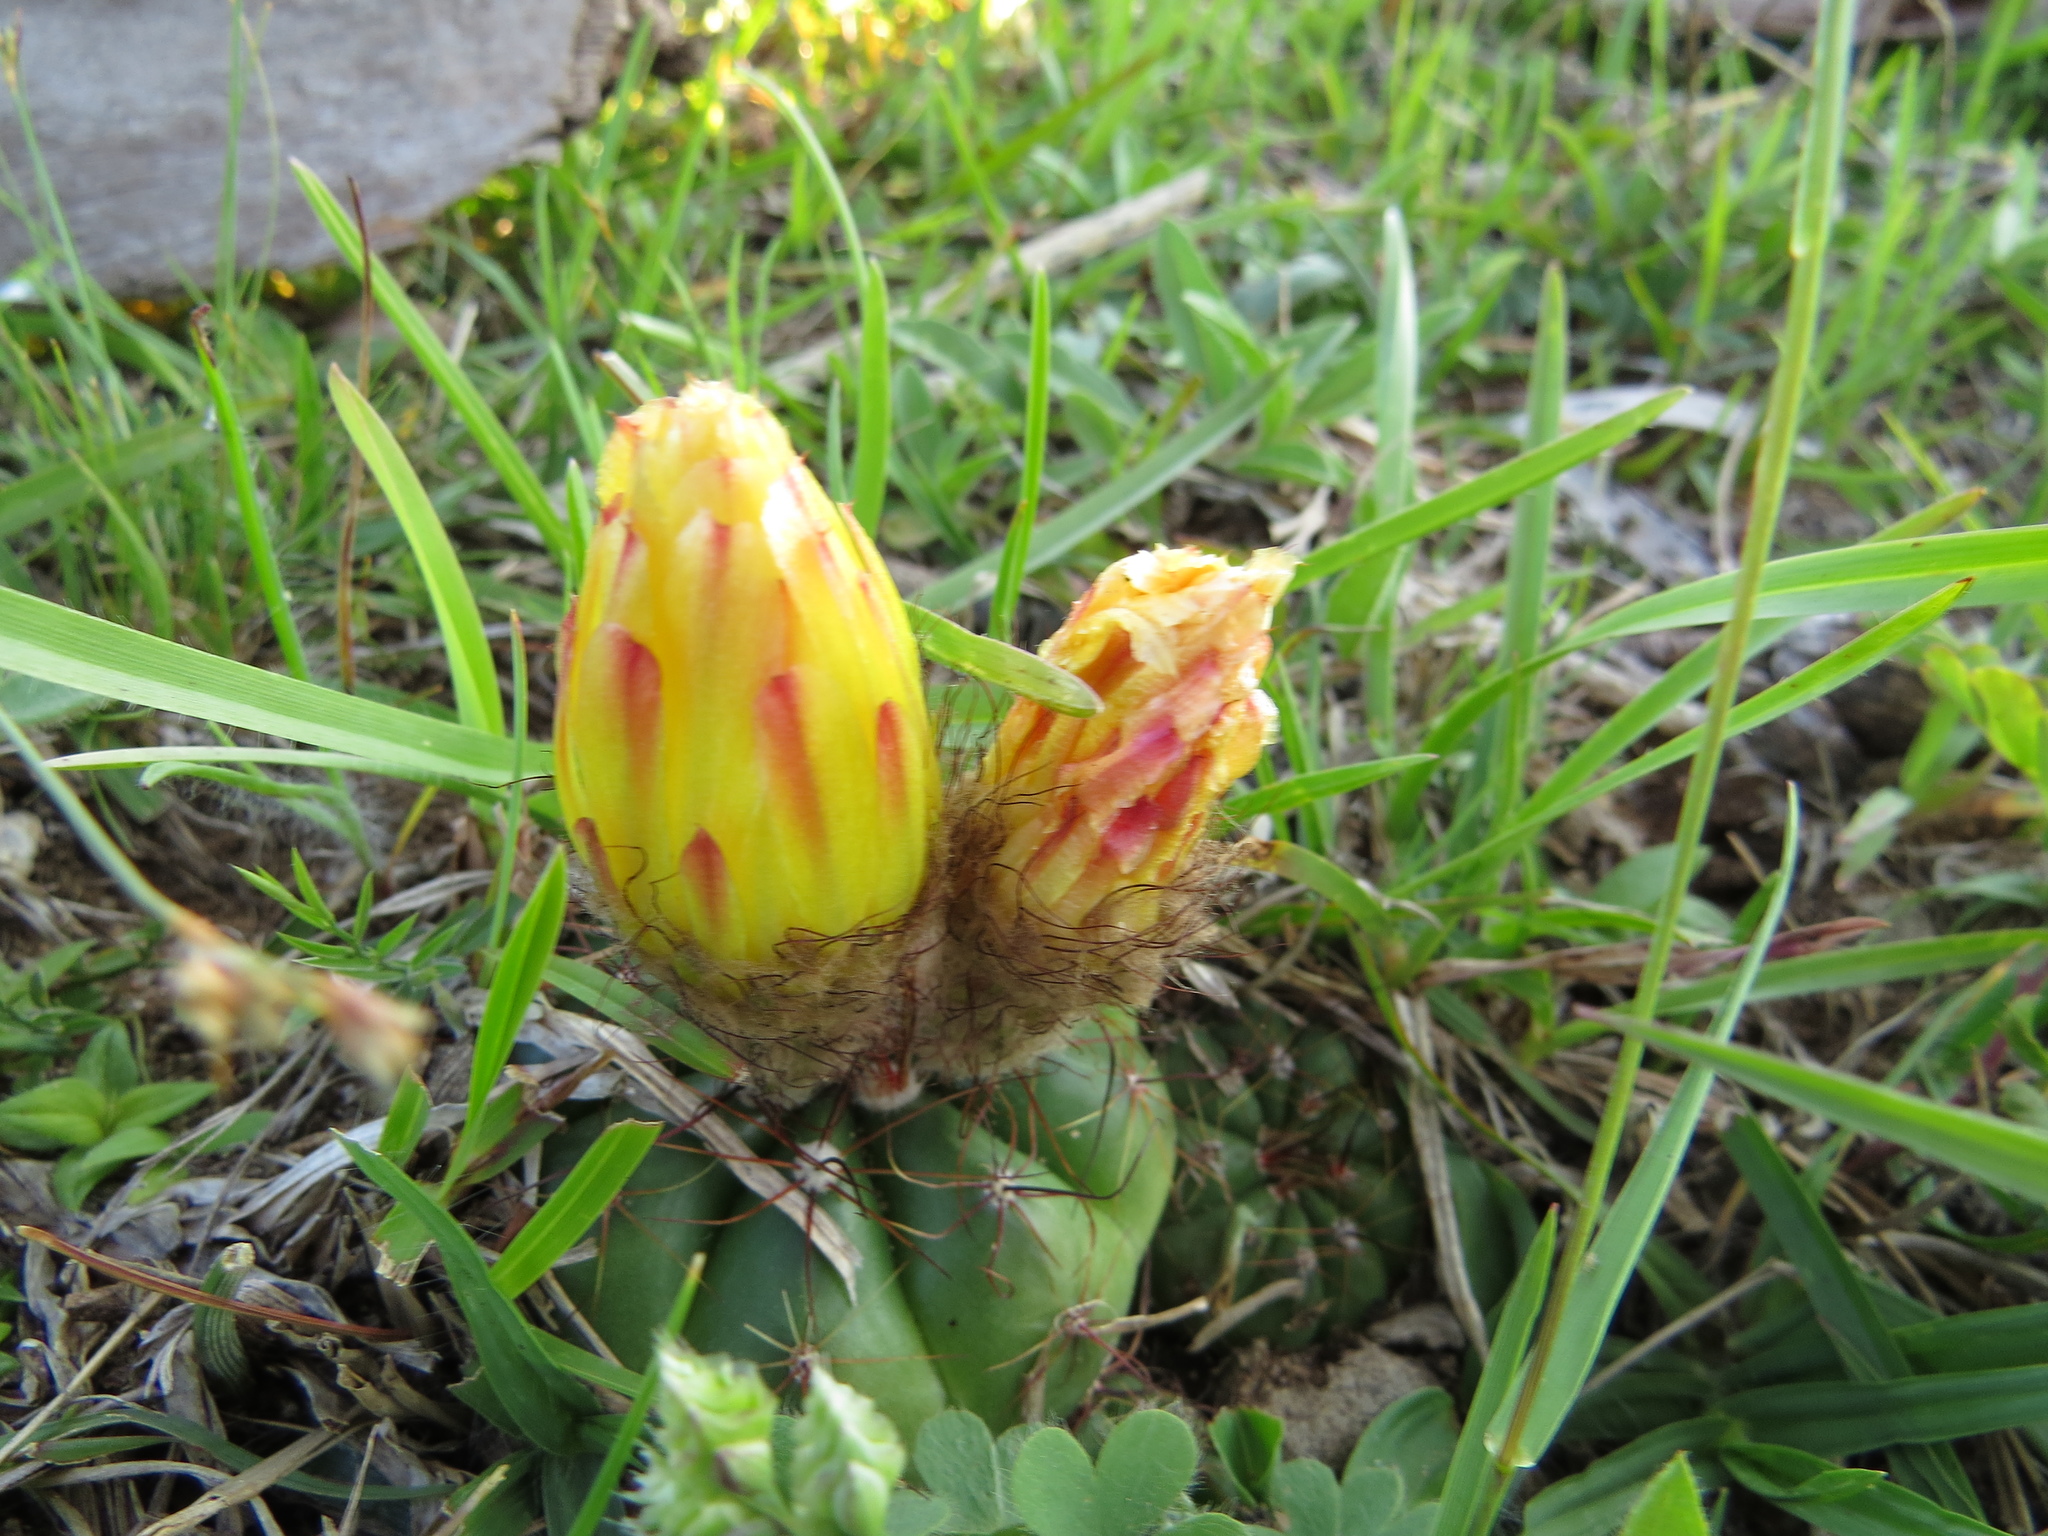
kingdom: Plantae
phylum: Tracheophyta
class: Magnoliopsida
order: Caryophyllales
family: Cactaceae
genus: Parodia
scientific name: Parodia ottonis
